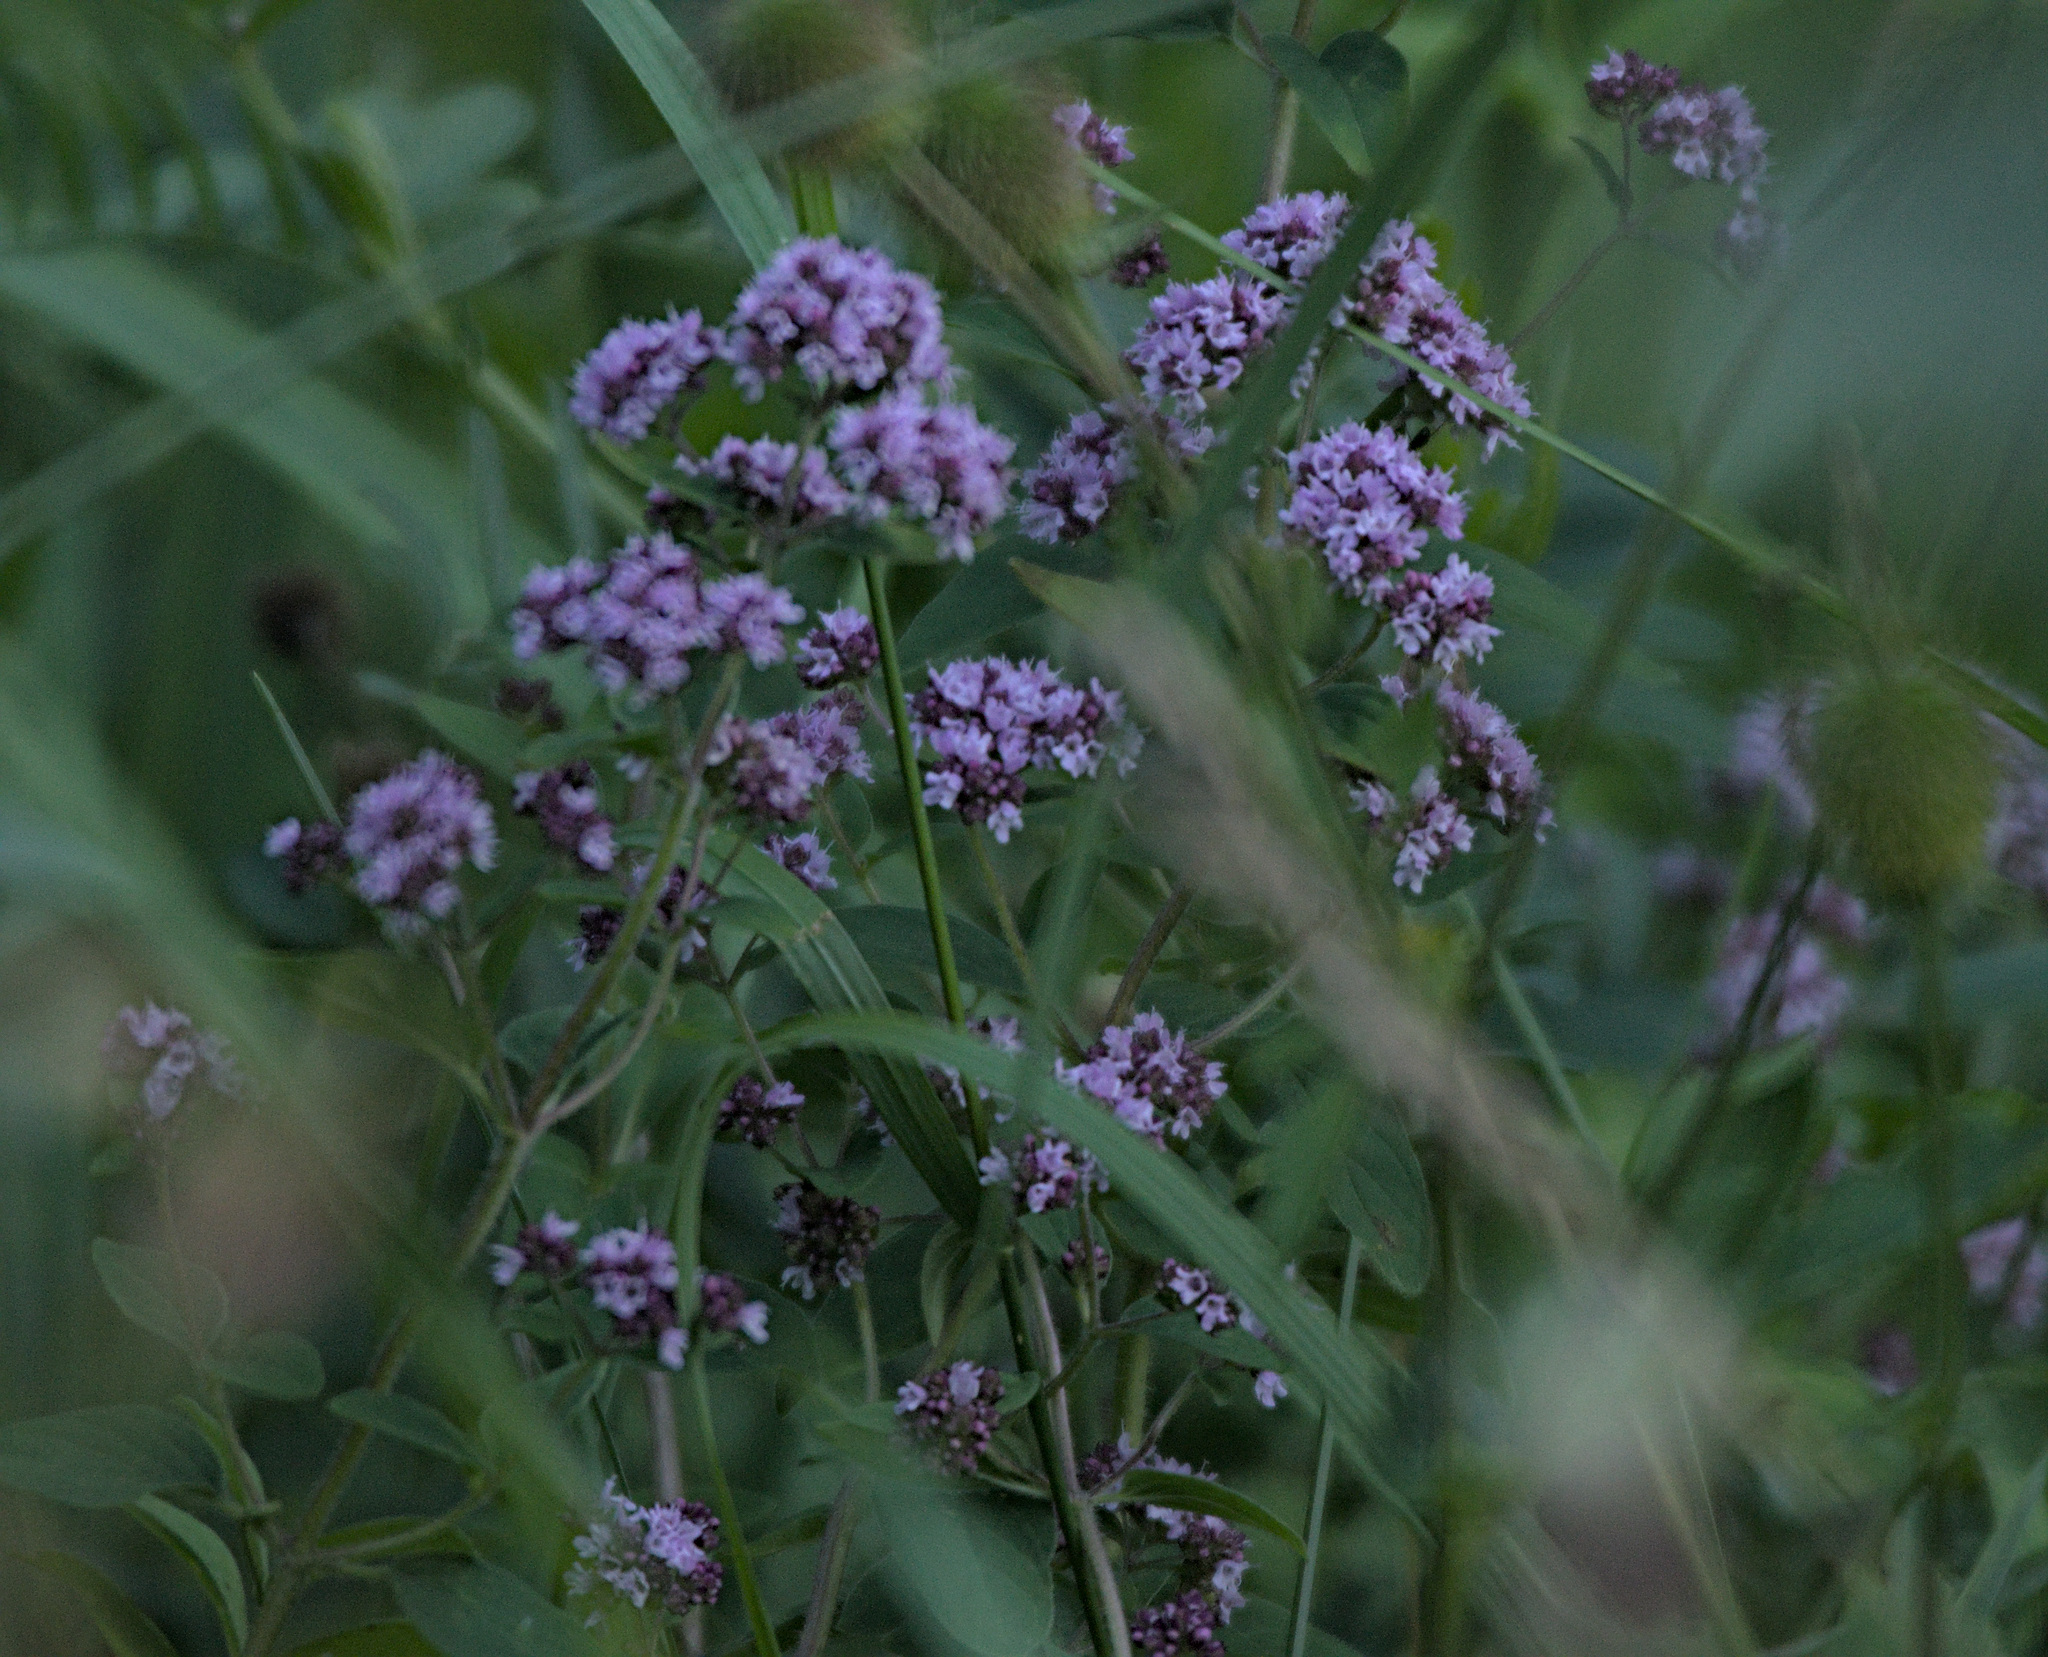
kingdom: Plantae
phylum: Tracheophyta
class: Magnoliopsida
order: Lamiales
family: Lamiaceae
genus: Origanum
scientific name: Origanum vulgare
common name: Wild marjoram
